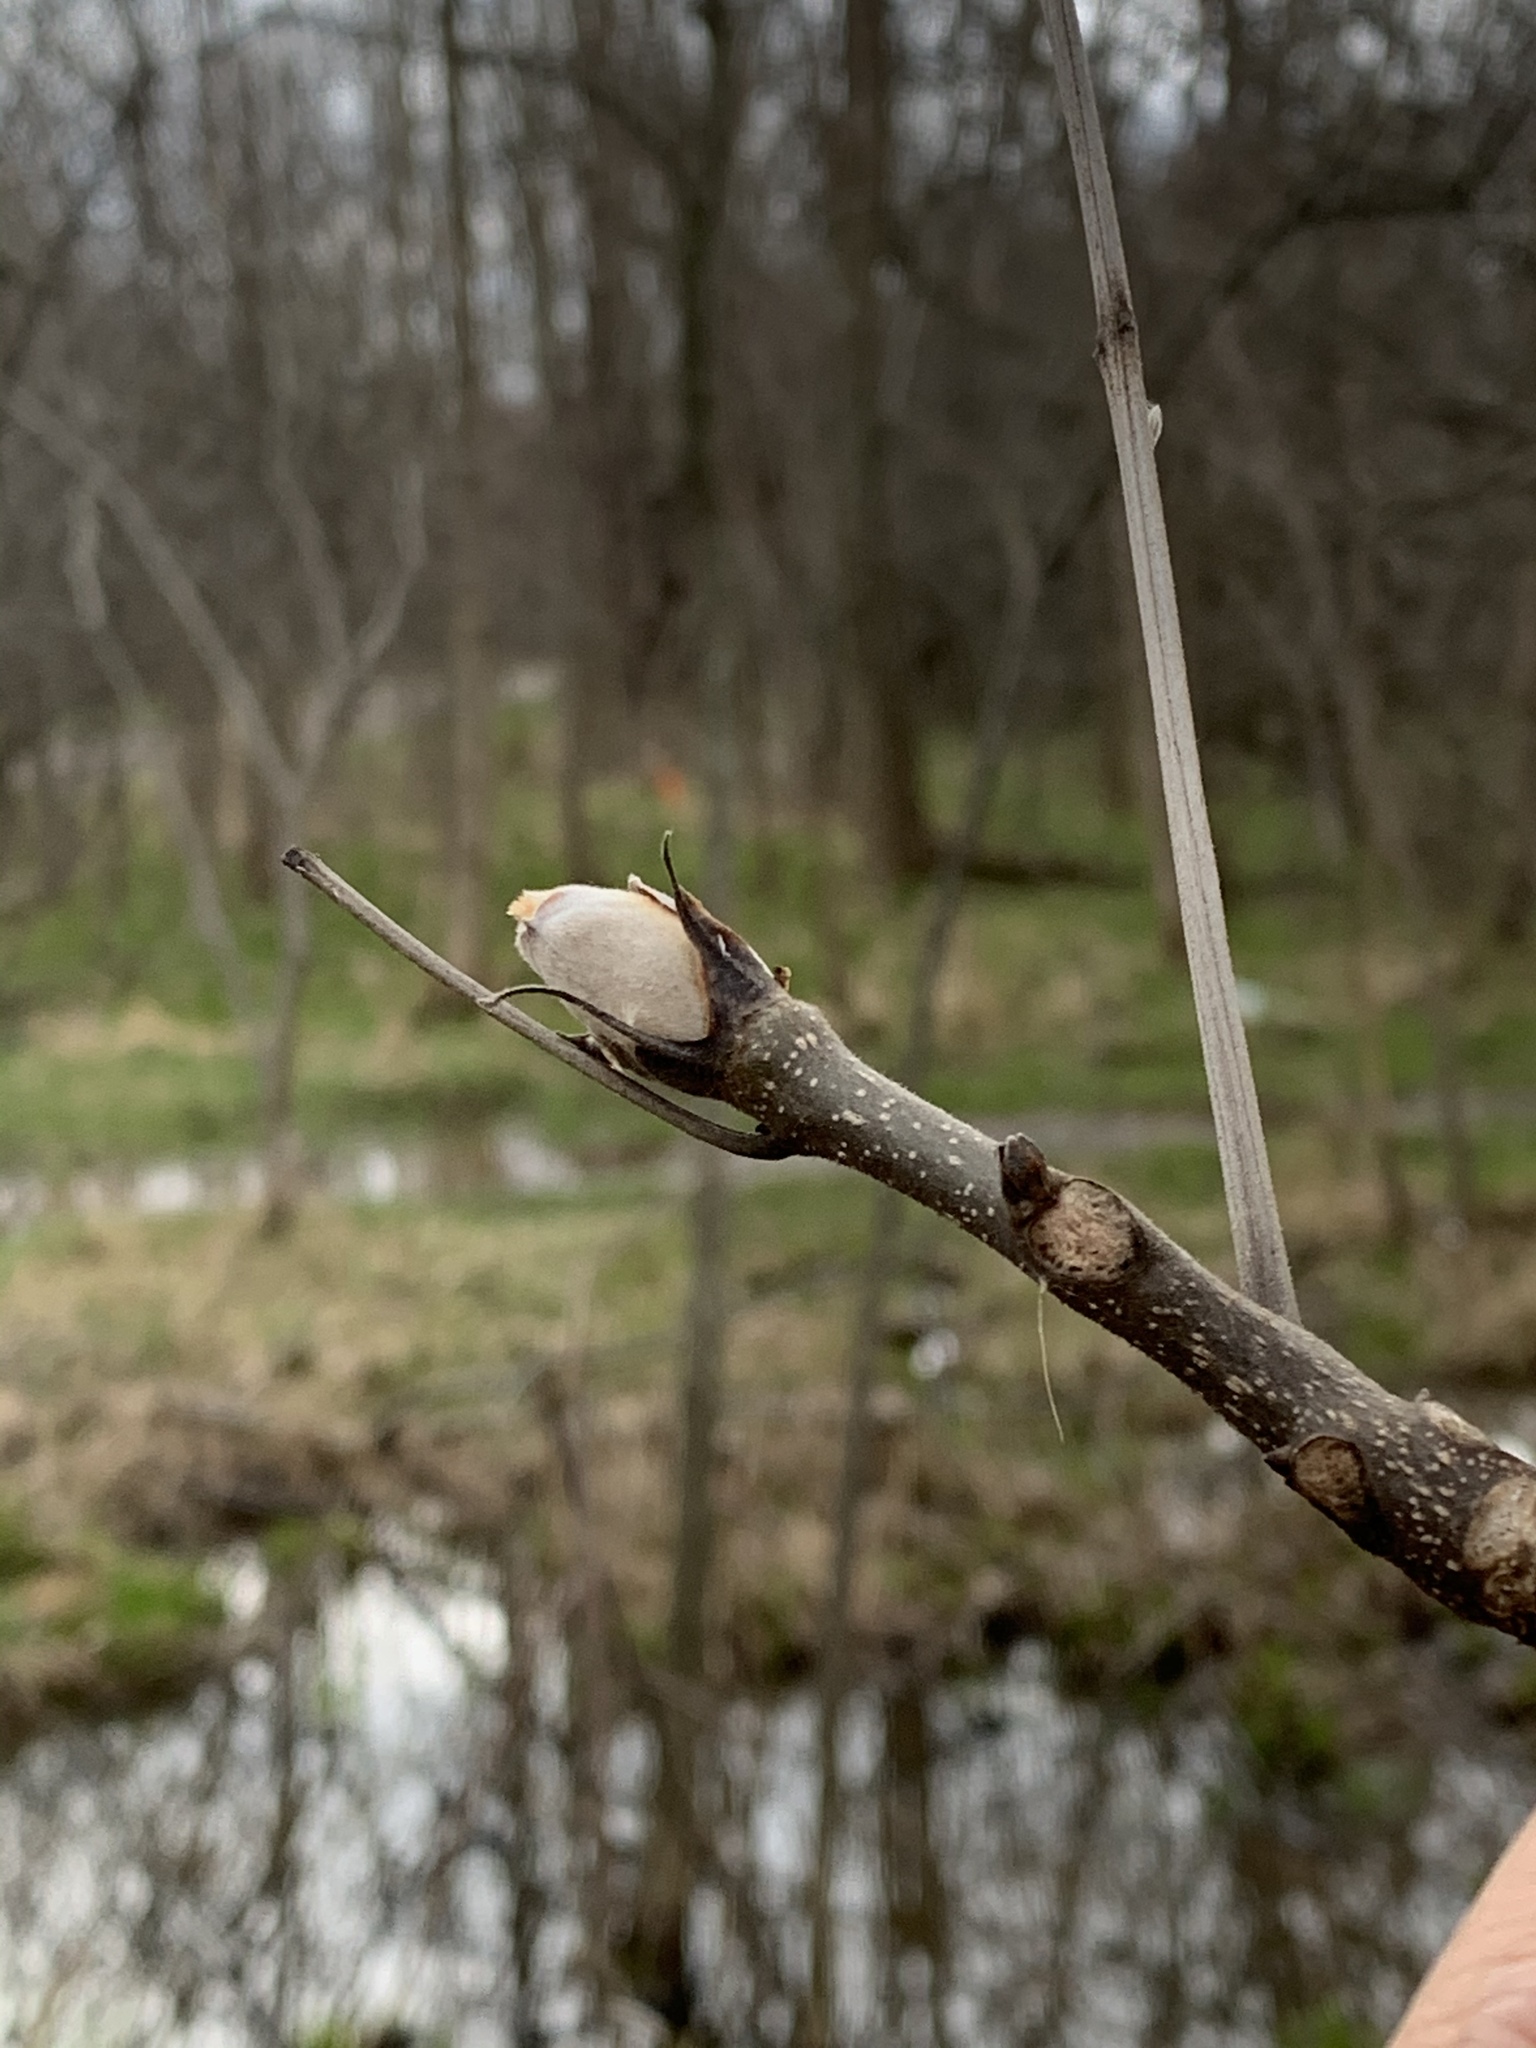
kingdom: Plantae
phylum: Tracheophyta
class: Magnoliopsida
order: Fagales
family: Juglandaceae
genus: Carya
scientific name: Carya ovata
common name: Shagbark hickory
